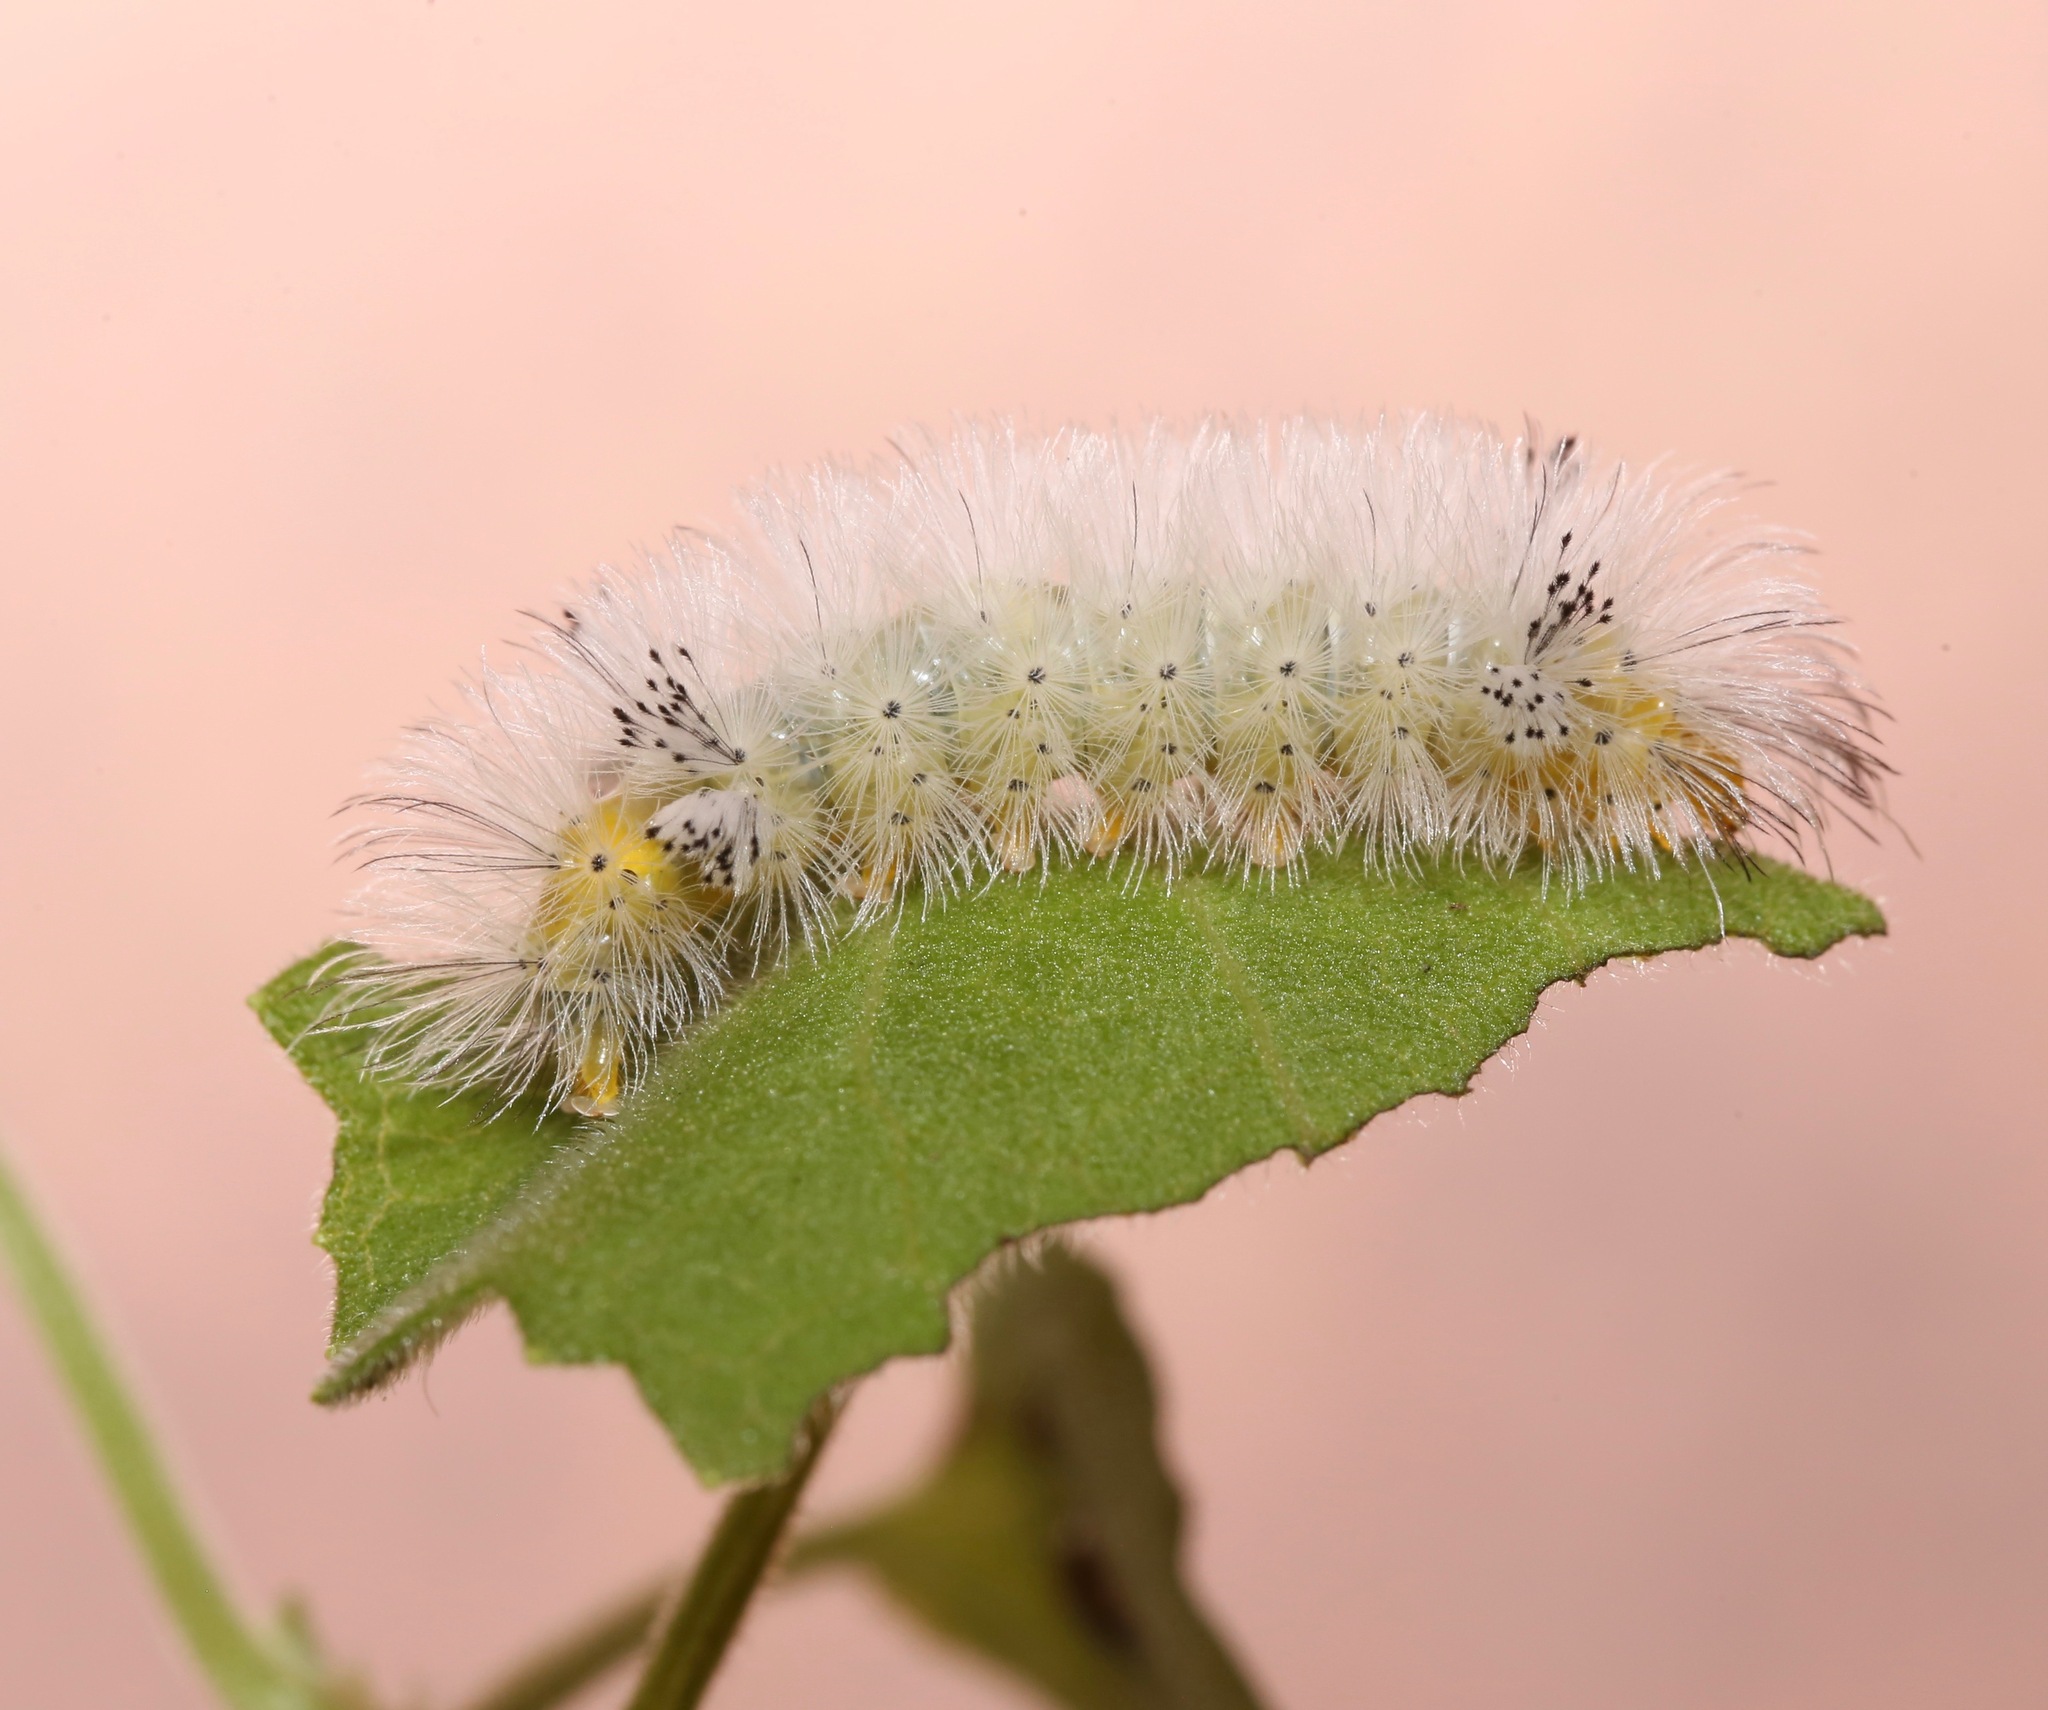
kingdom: Animalia
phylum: Arthropoda
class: Insecta
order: Lepidoptera
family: Erebidae
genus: Cosmosoma
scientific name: Cosmosoma myrodora
